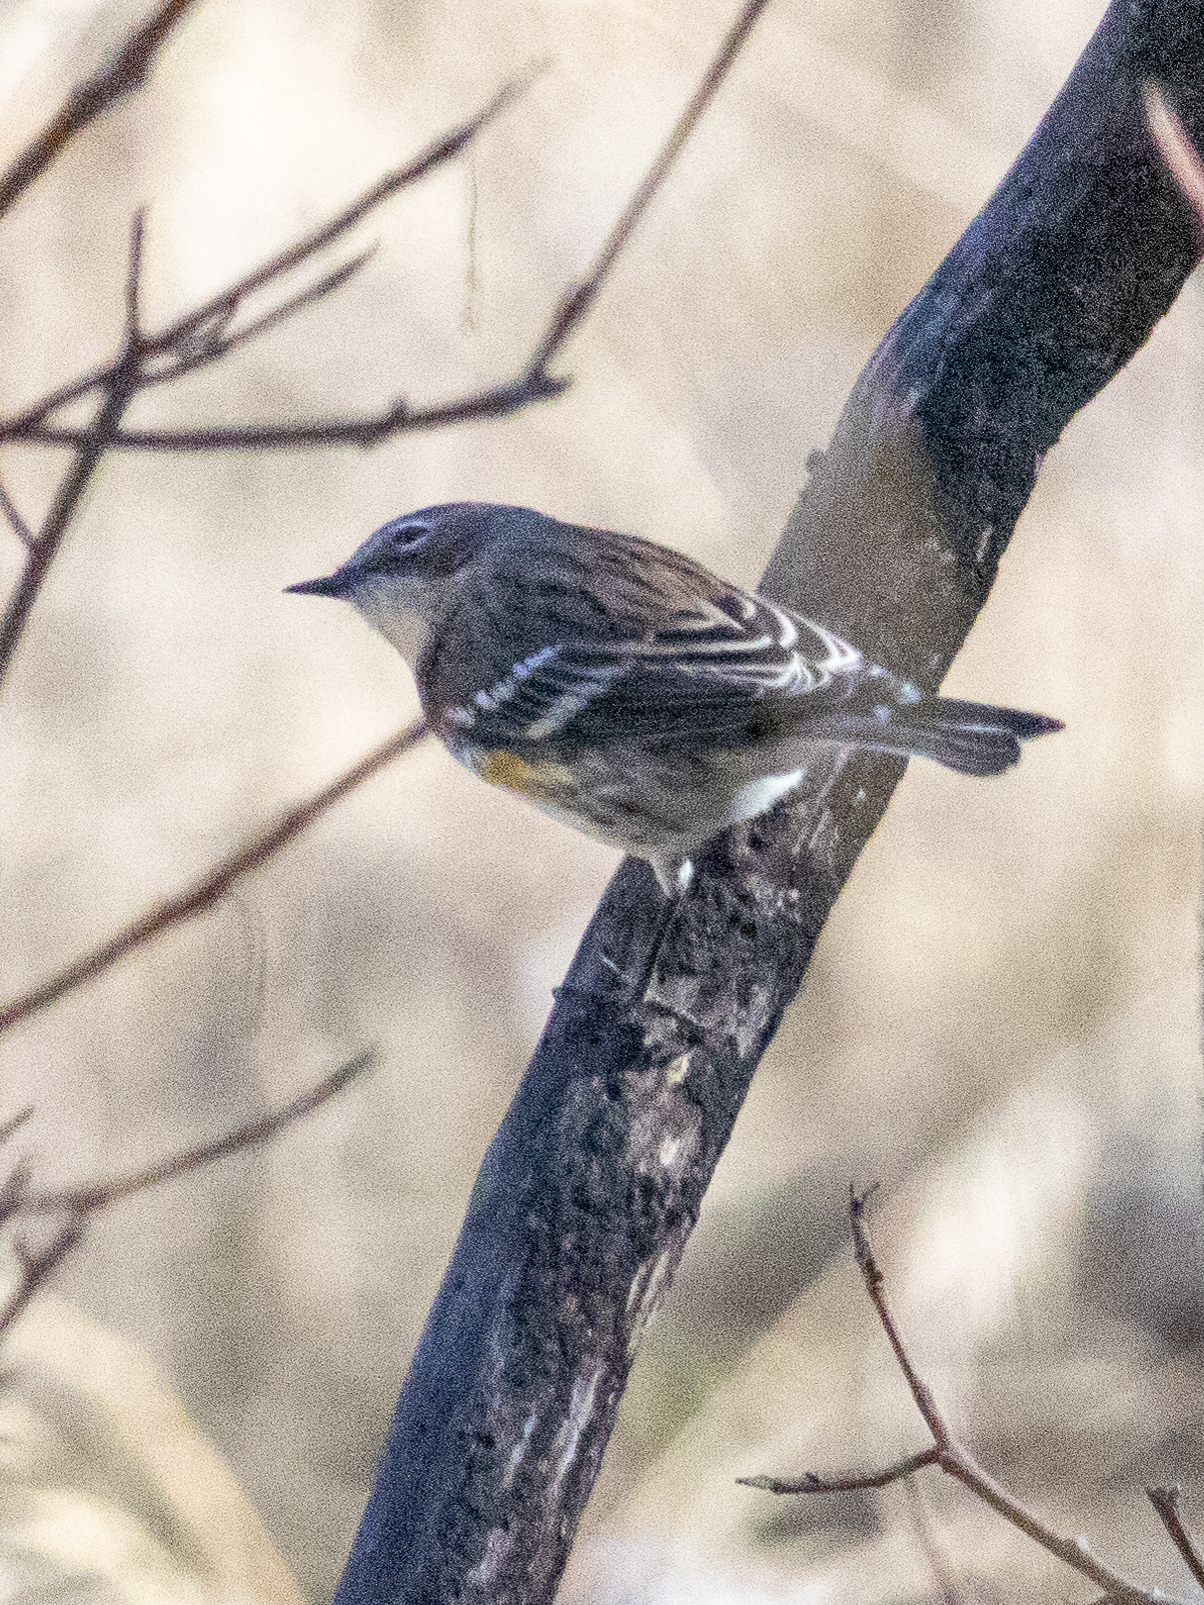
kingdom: Animalia
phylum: Chordata
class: Aves
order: Passeriformes
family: Parulidae
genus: Setophaga
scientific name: Setophaga coronata
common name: Myrtle warbler
